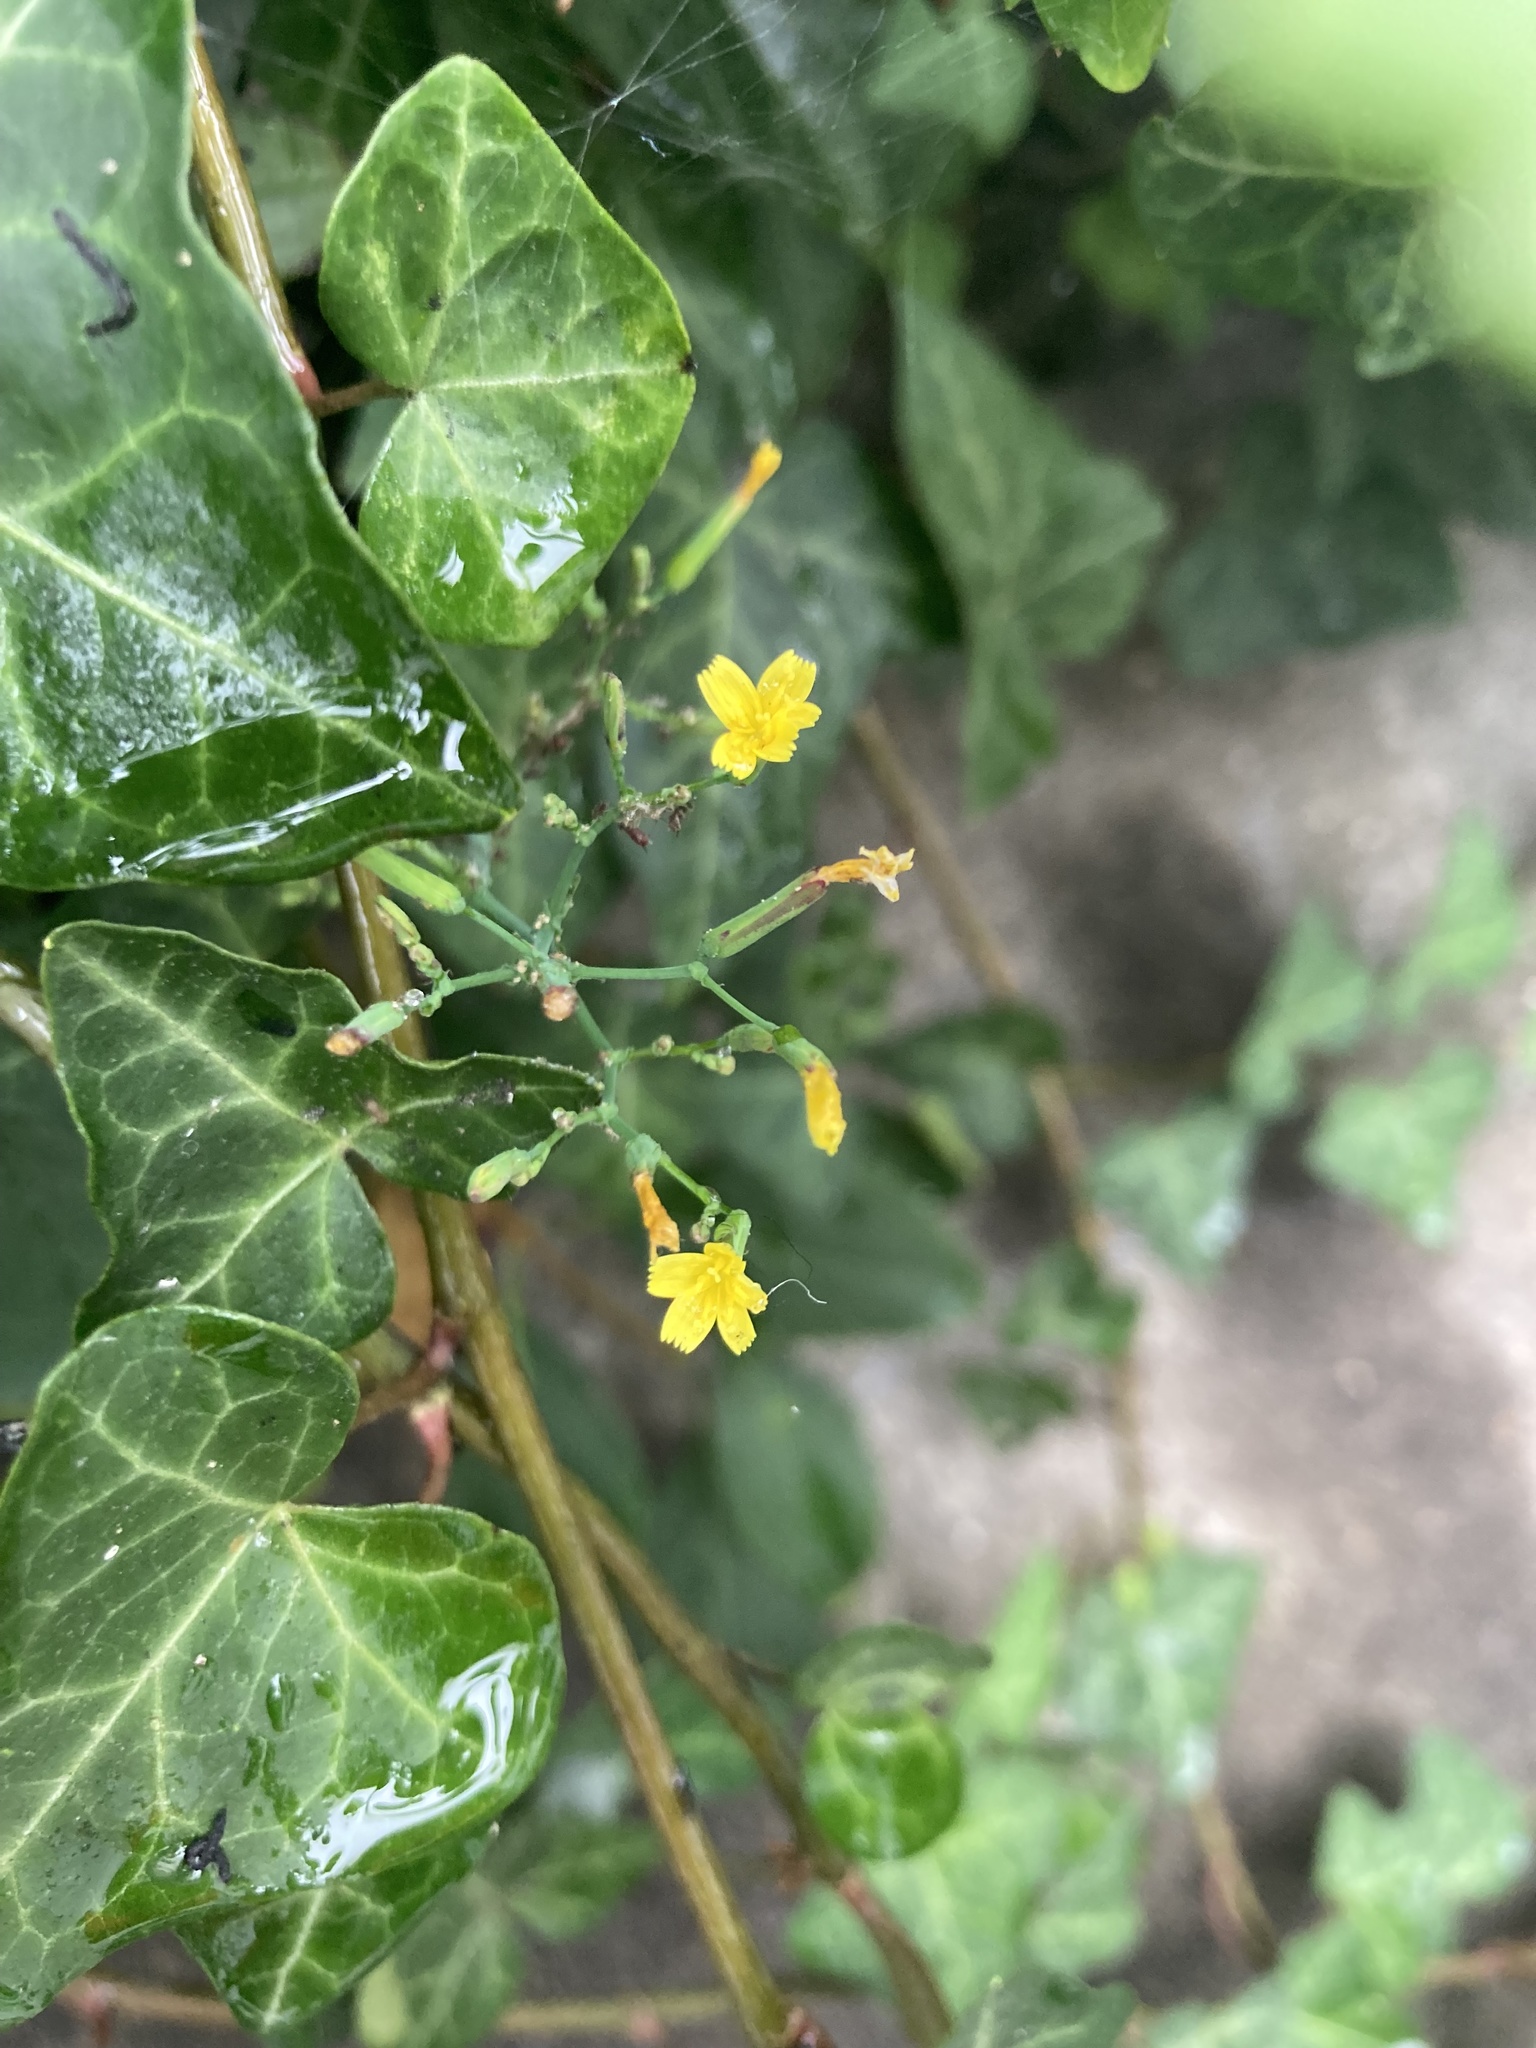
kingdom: Plantae
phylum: Tracheophyta
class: Magnoliopsida
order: Asterales
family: Asteraceae
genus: Mycelis
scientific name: Mycelis muralis
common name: Wall lettuce
